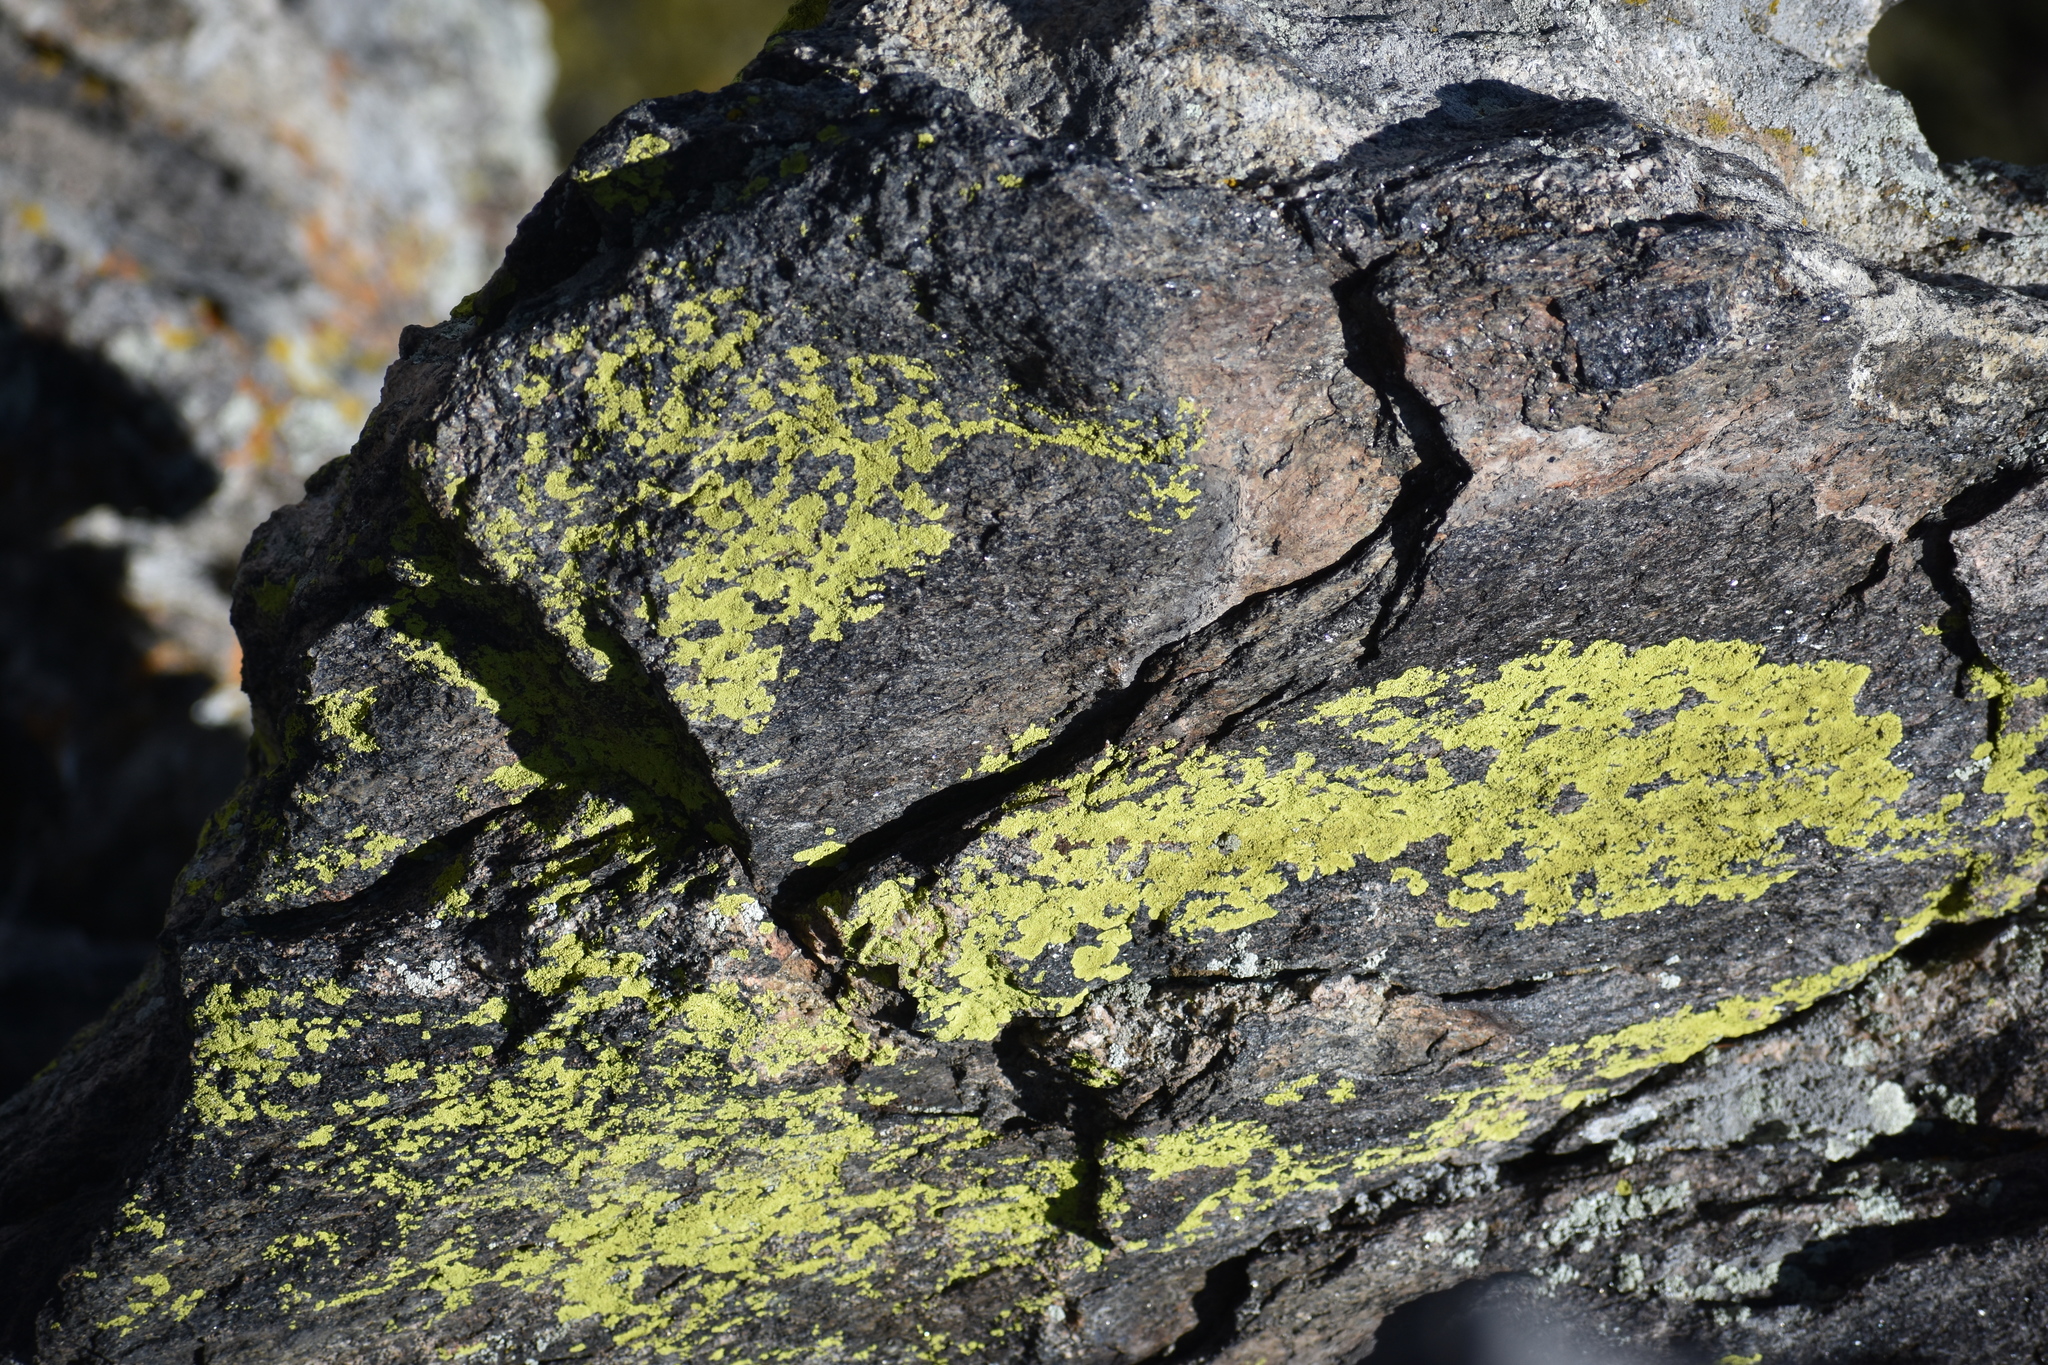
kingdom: Fungi
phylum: Ascomycota
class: Lecanoromycetes
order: Acarosporales
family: Acarosporaceae
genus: Pleopsidium
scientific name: Pleopsidium oxytonum
